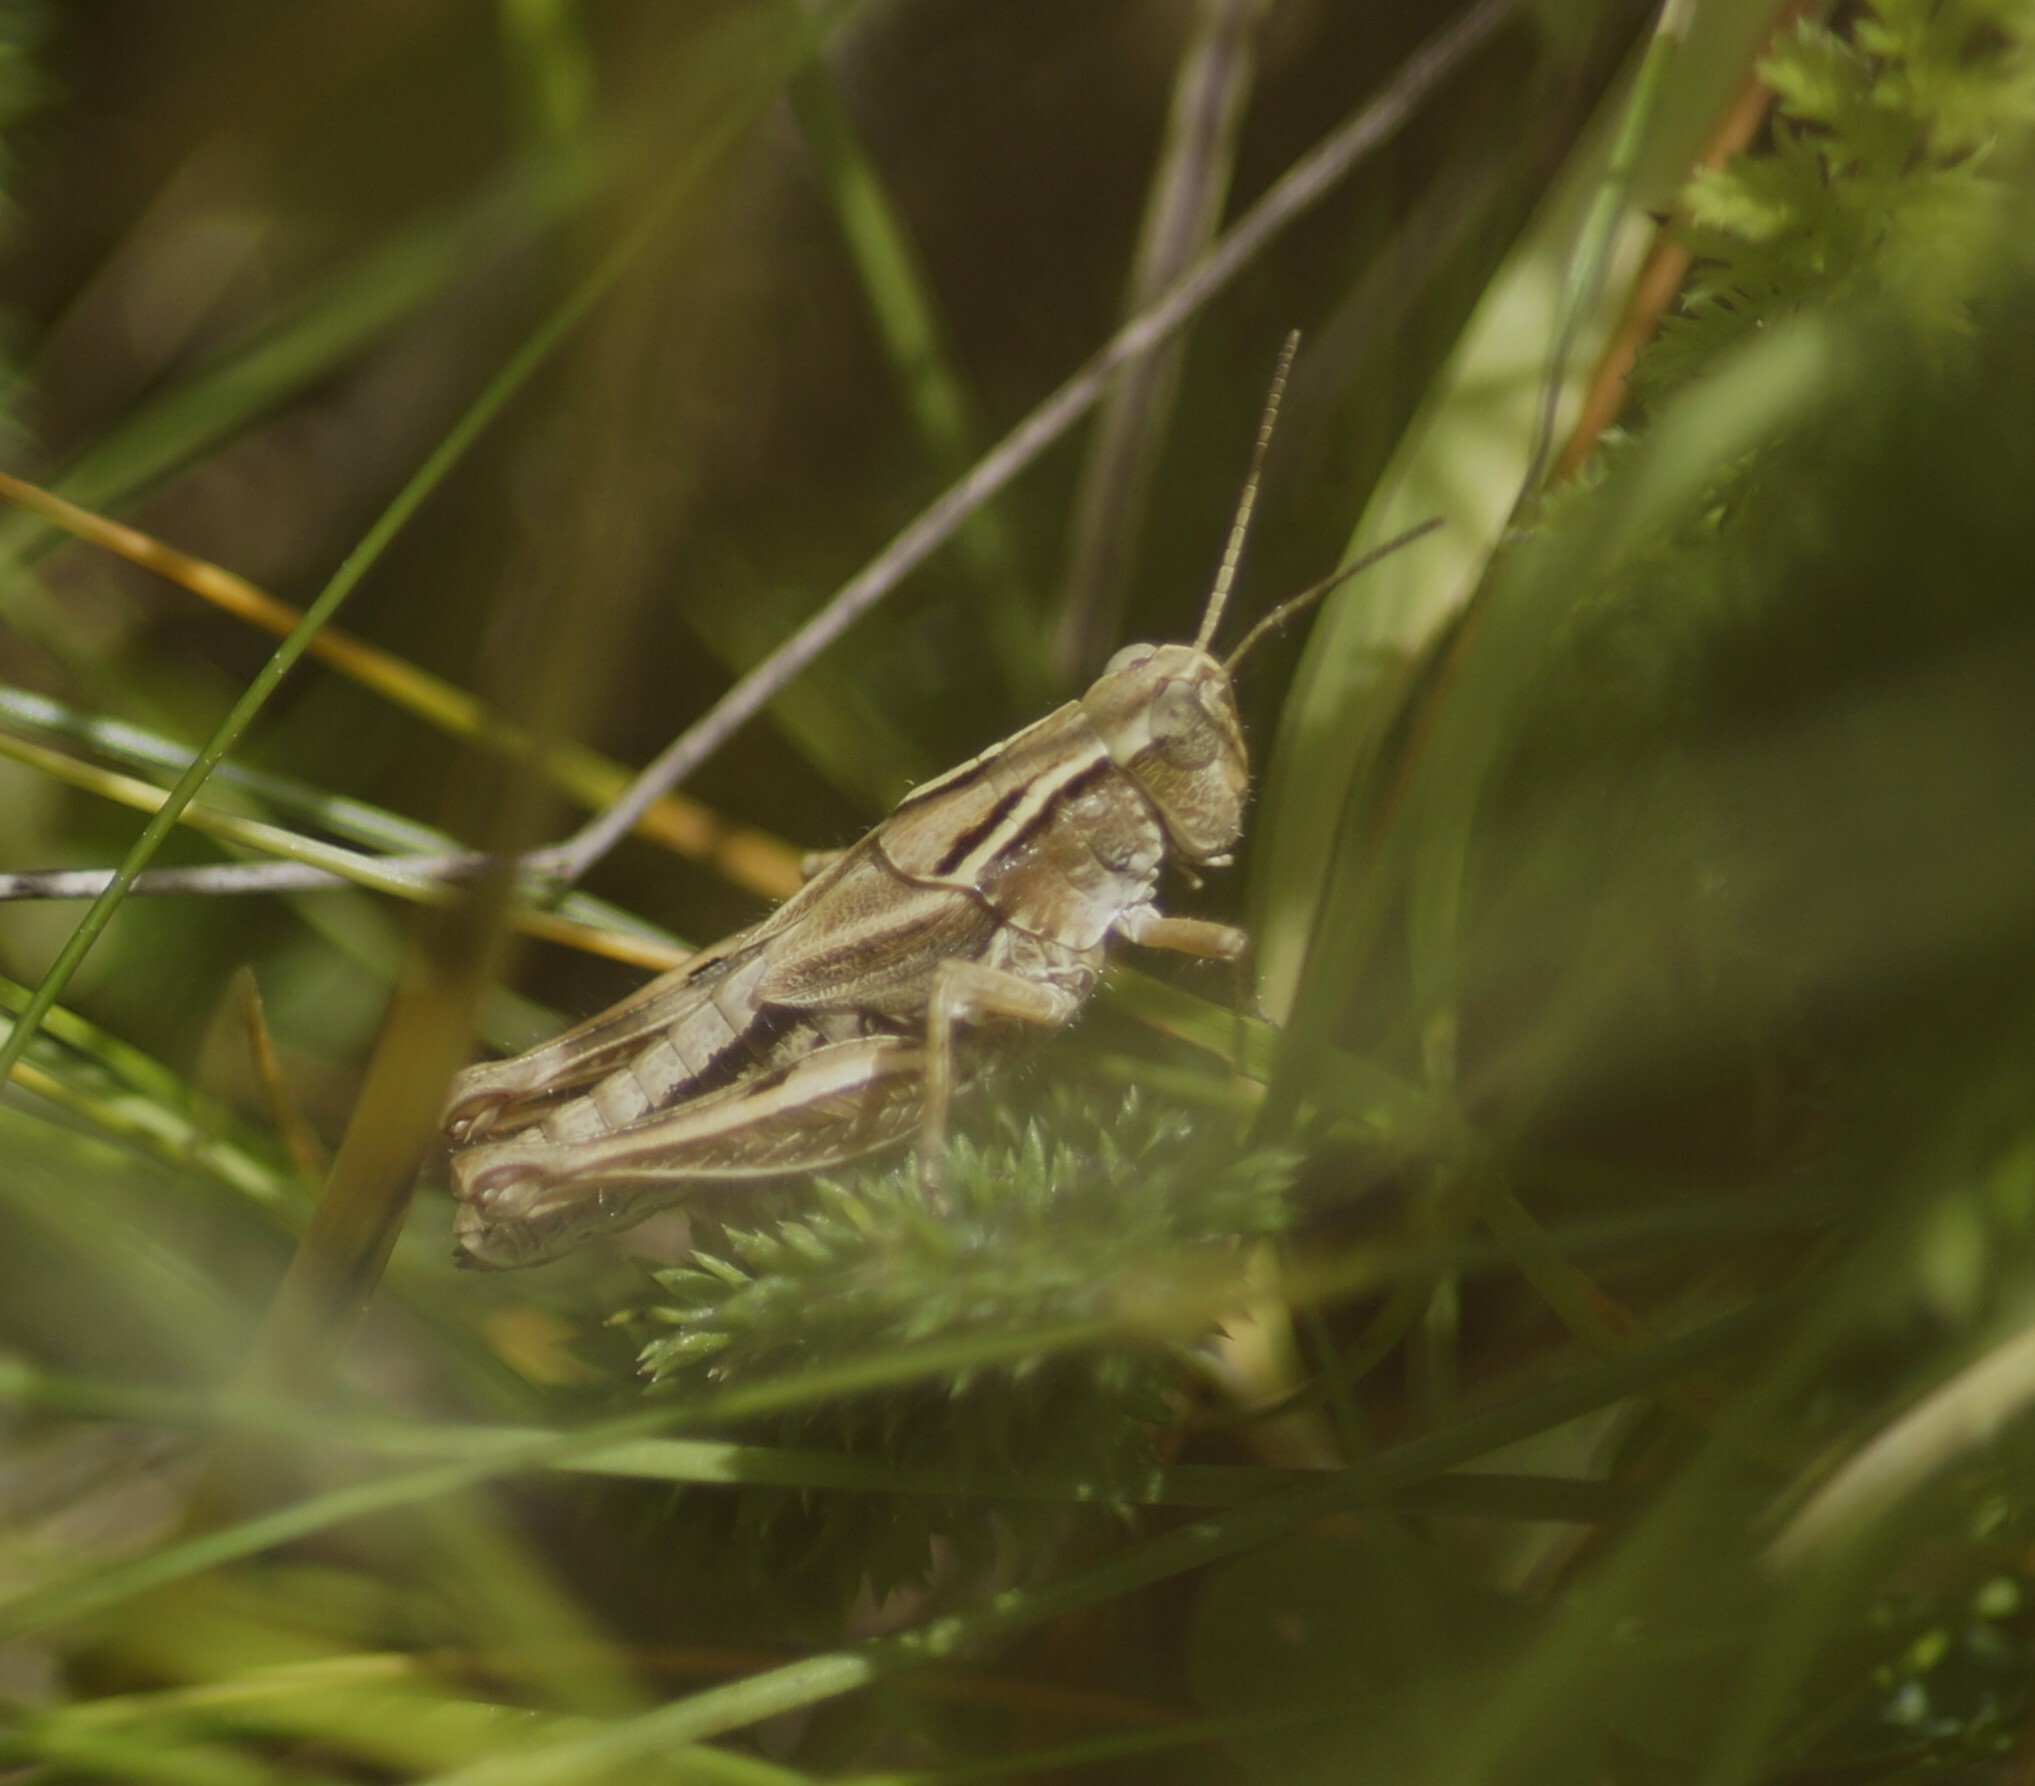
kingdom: Animalia
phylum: Arthropoda
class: Insecta
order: Orthoptera
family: Acrididae
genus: Phaulacridium
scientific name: Phaulacridium marginale
